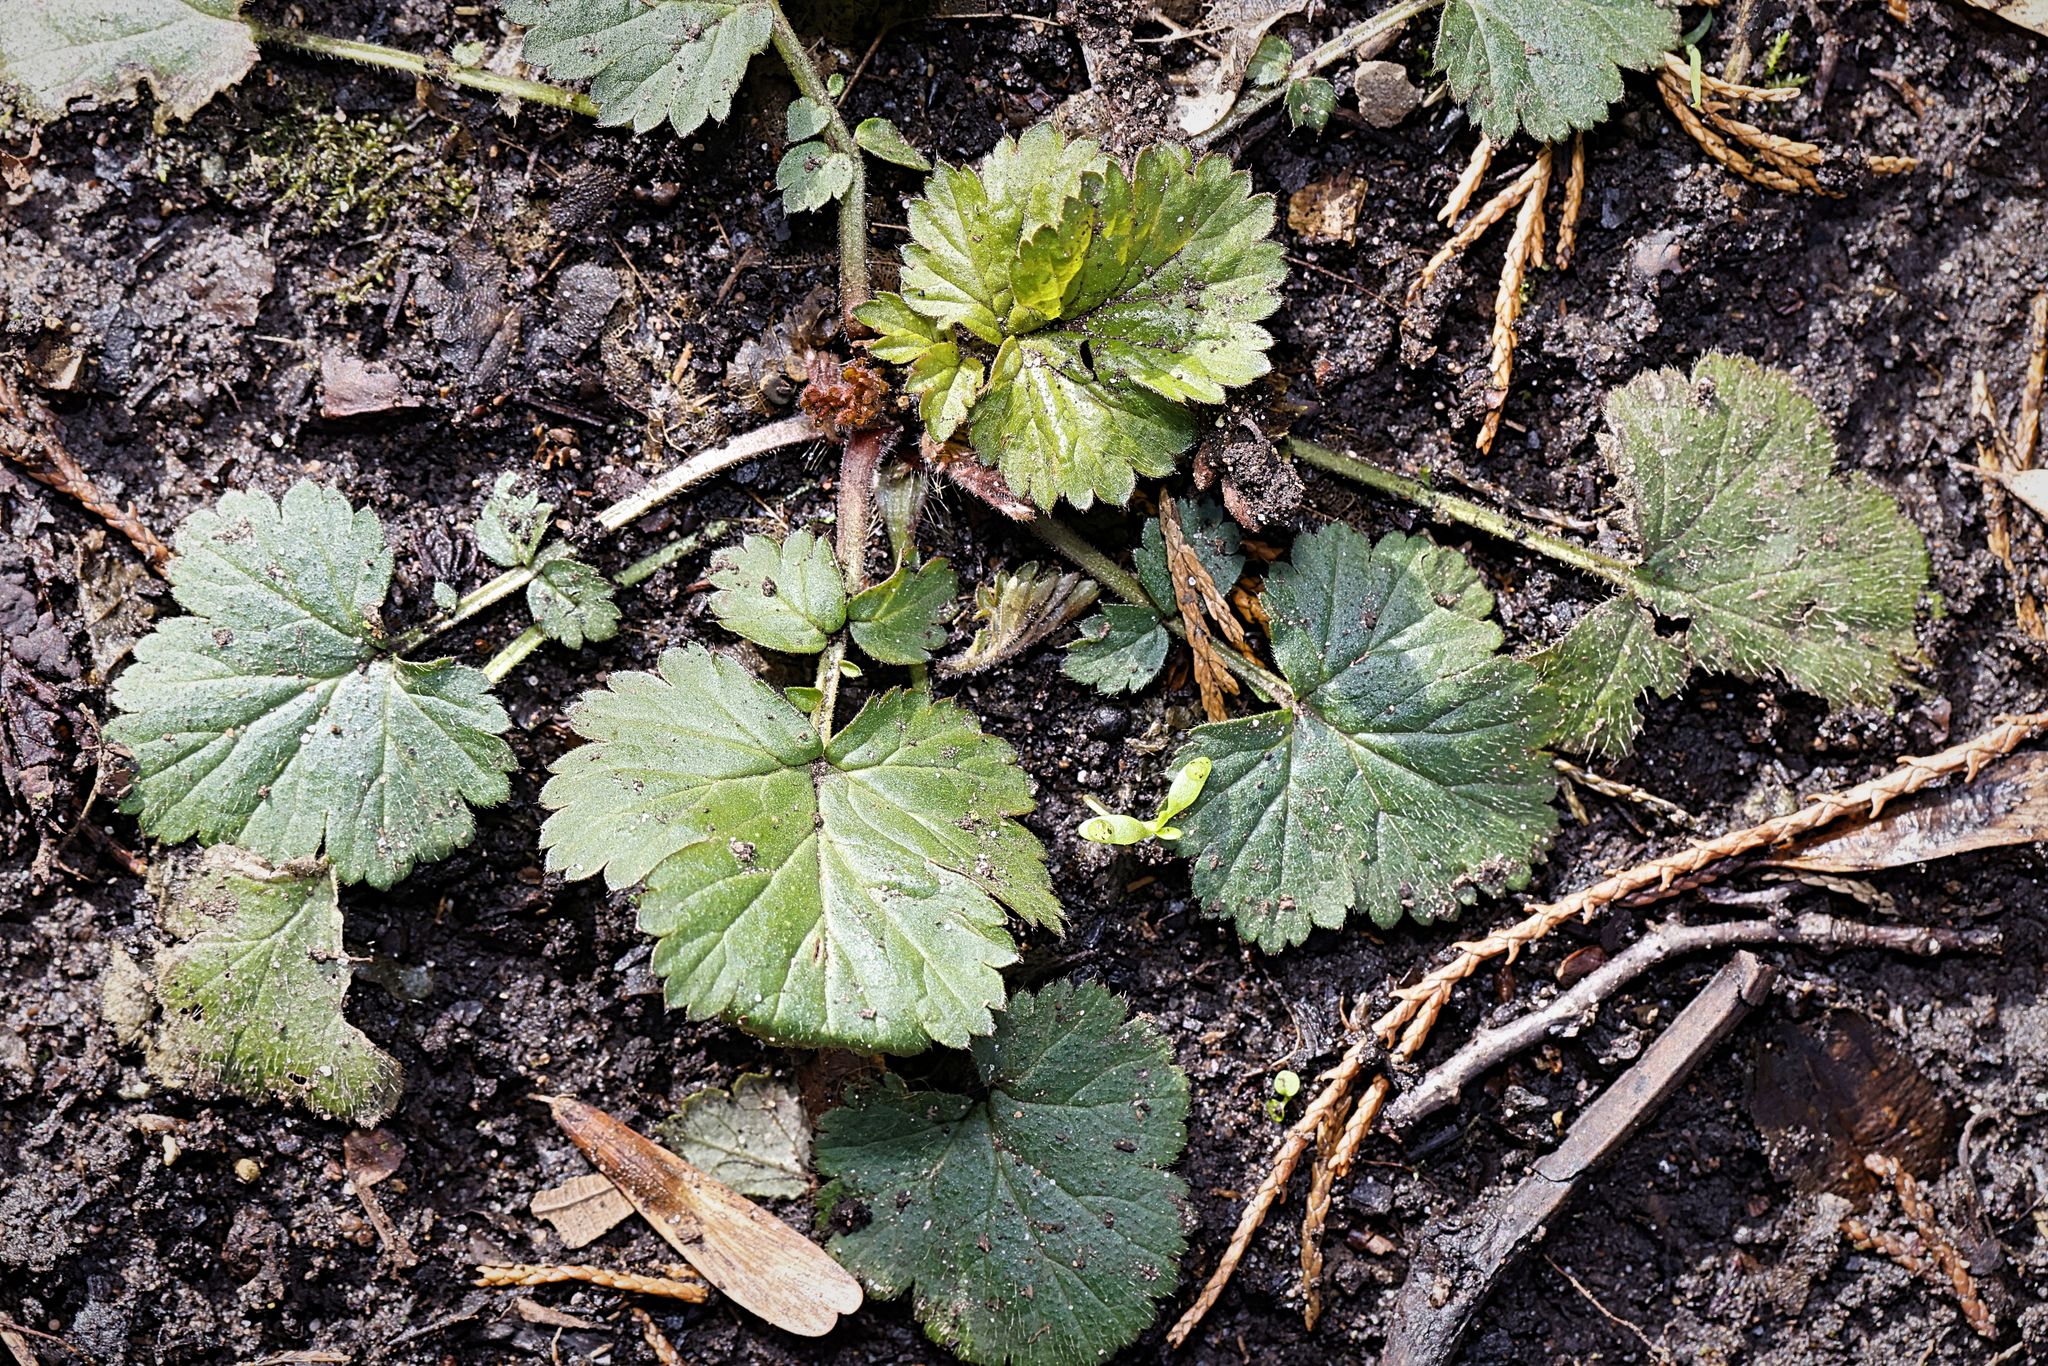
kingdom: Plantae
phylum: Tracheophyta
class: Magnoliopsida
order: Rosales
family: Rosaceae
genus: Geum
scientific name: Geum urbanum
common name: Wood avens
